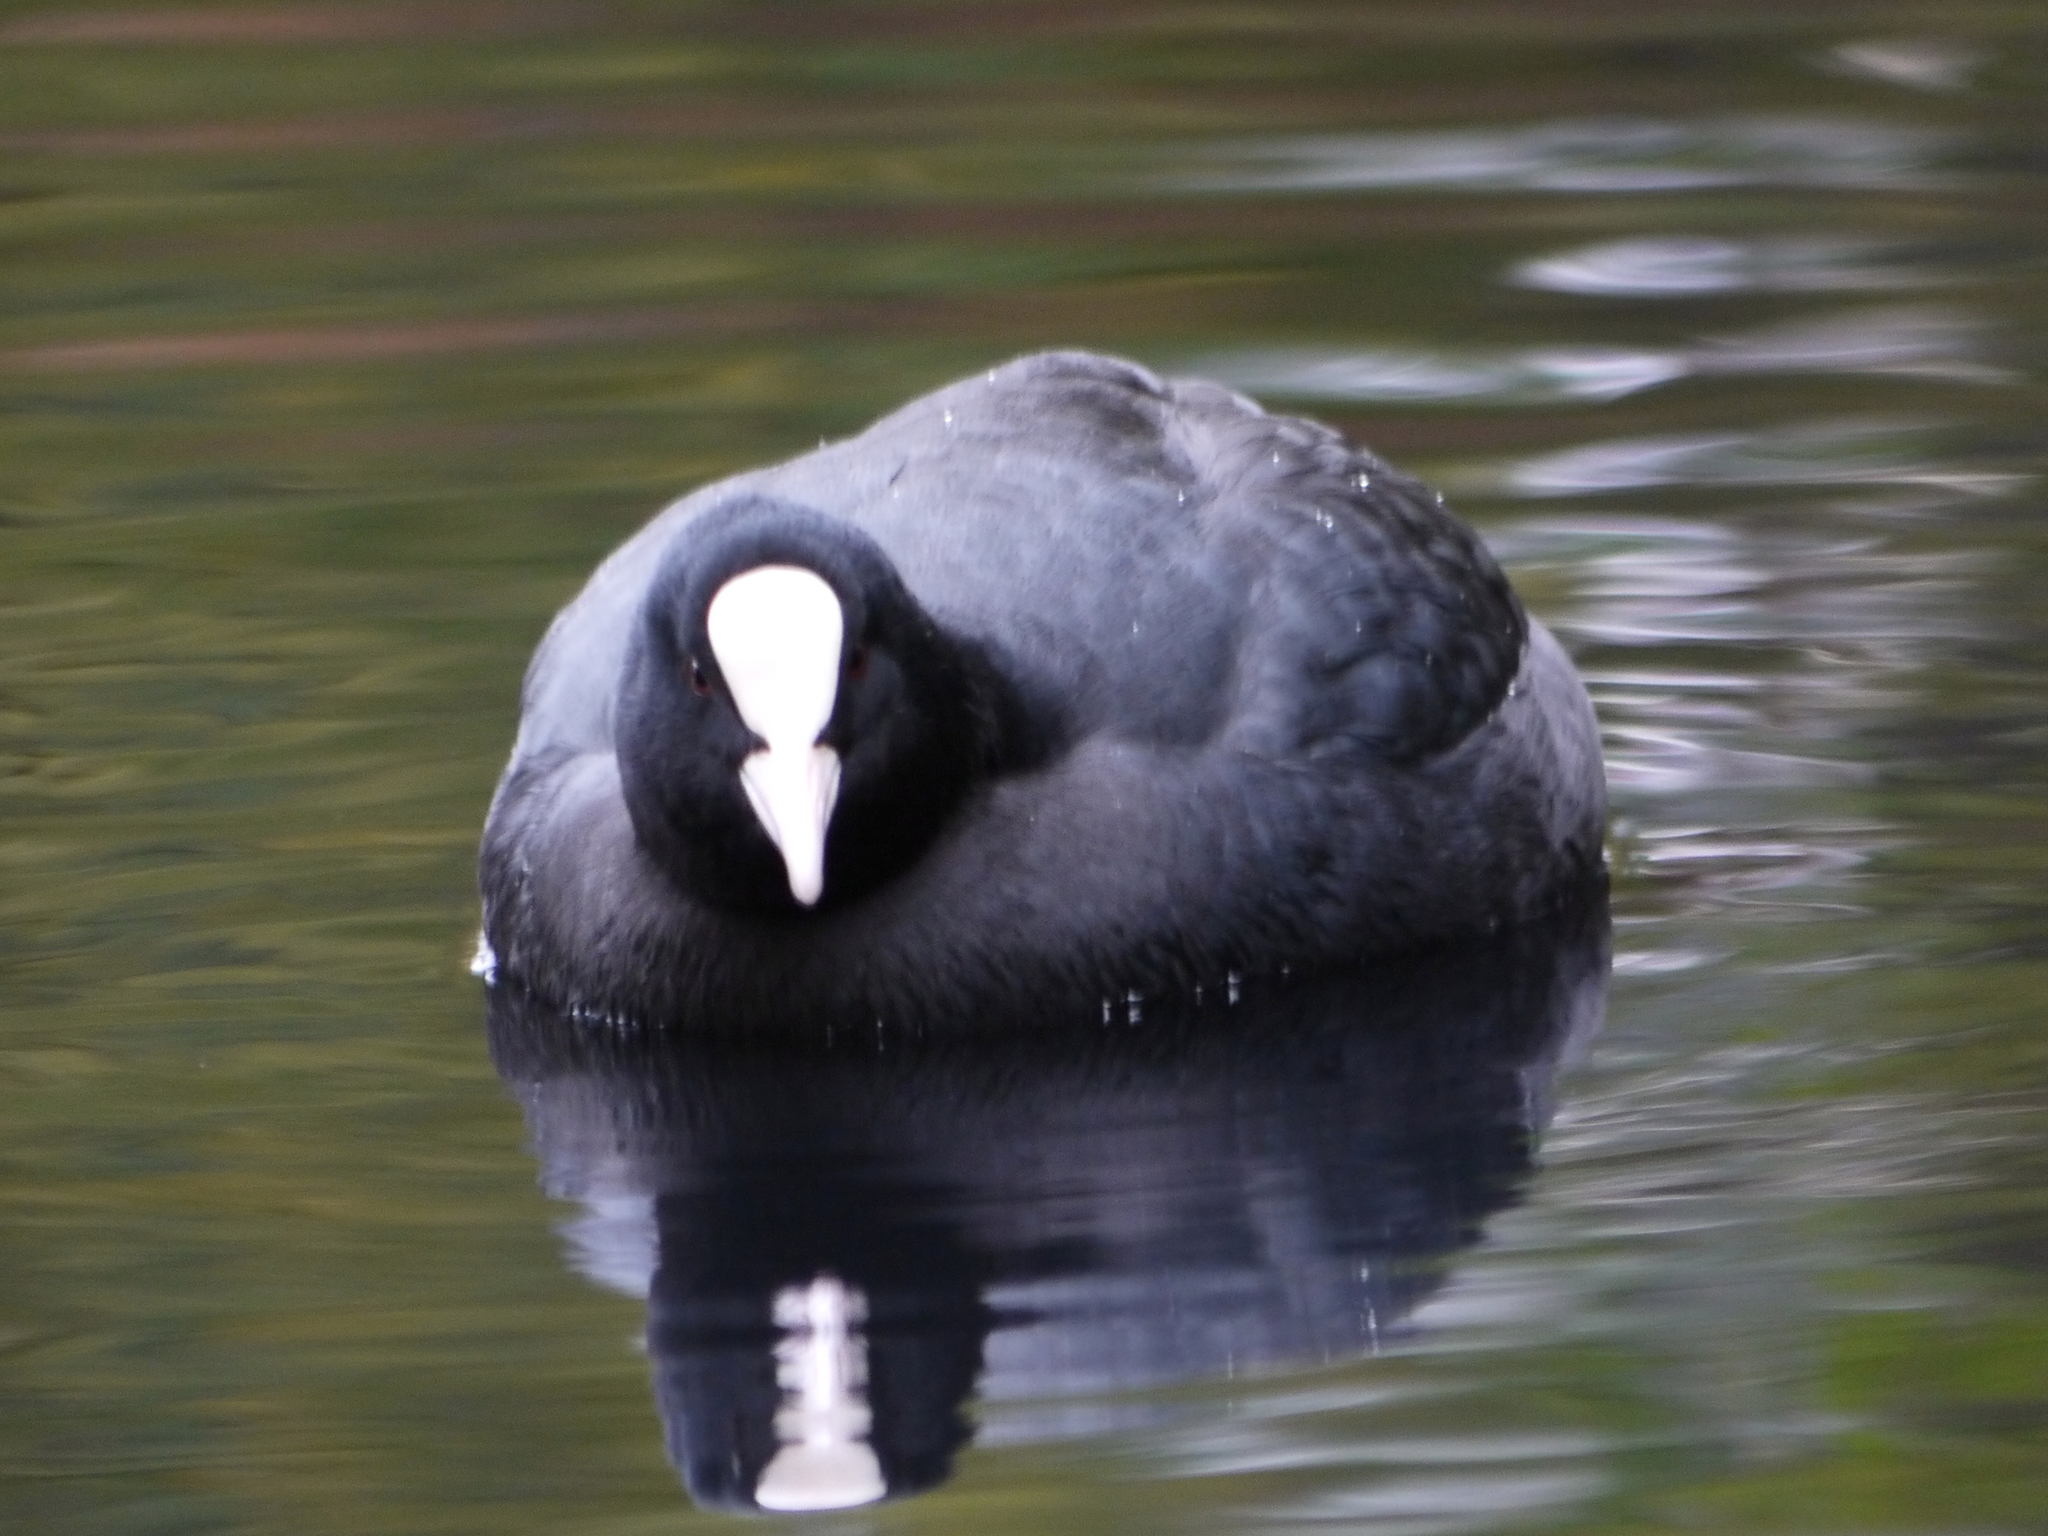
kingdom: Animalia
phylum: Chordata
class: Aves
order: Gruiformes
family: Rallidae
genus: Fulica
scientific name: Fulica atra
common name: Eurasian coot
